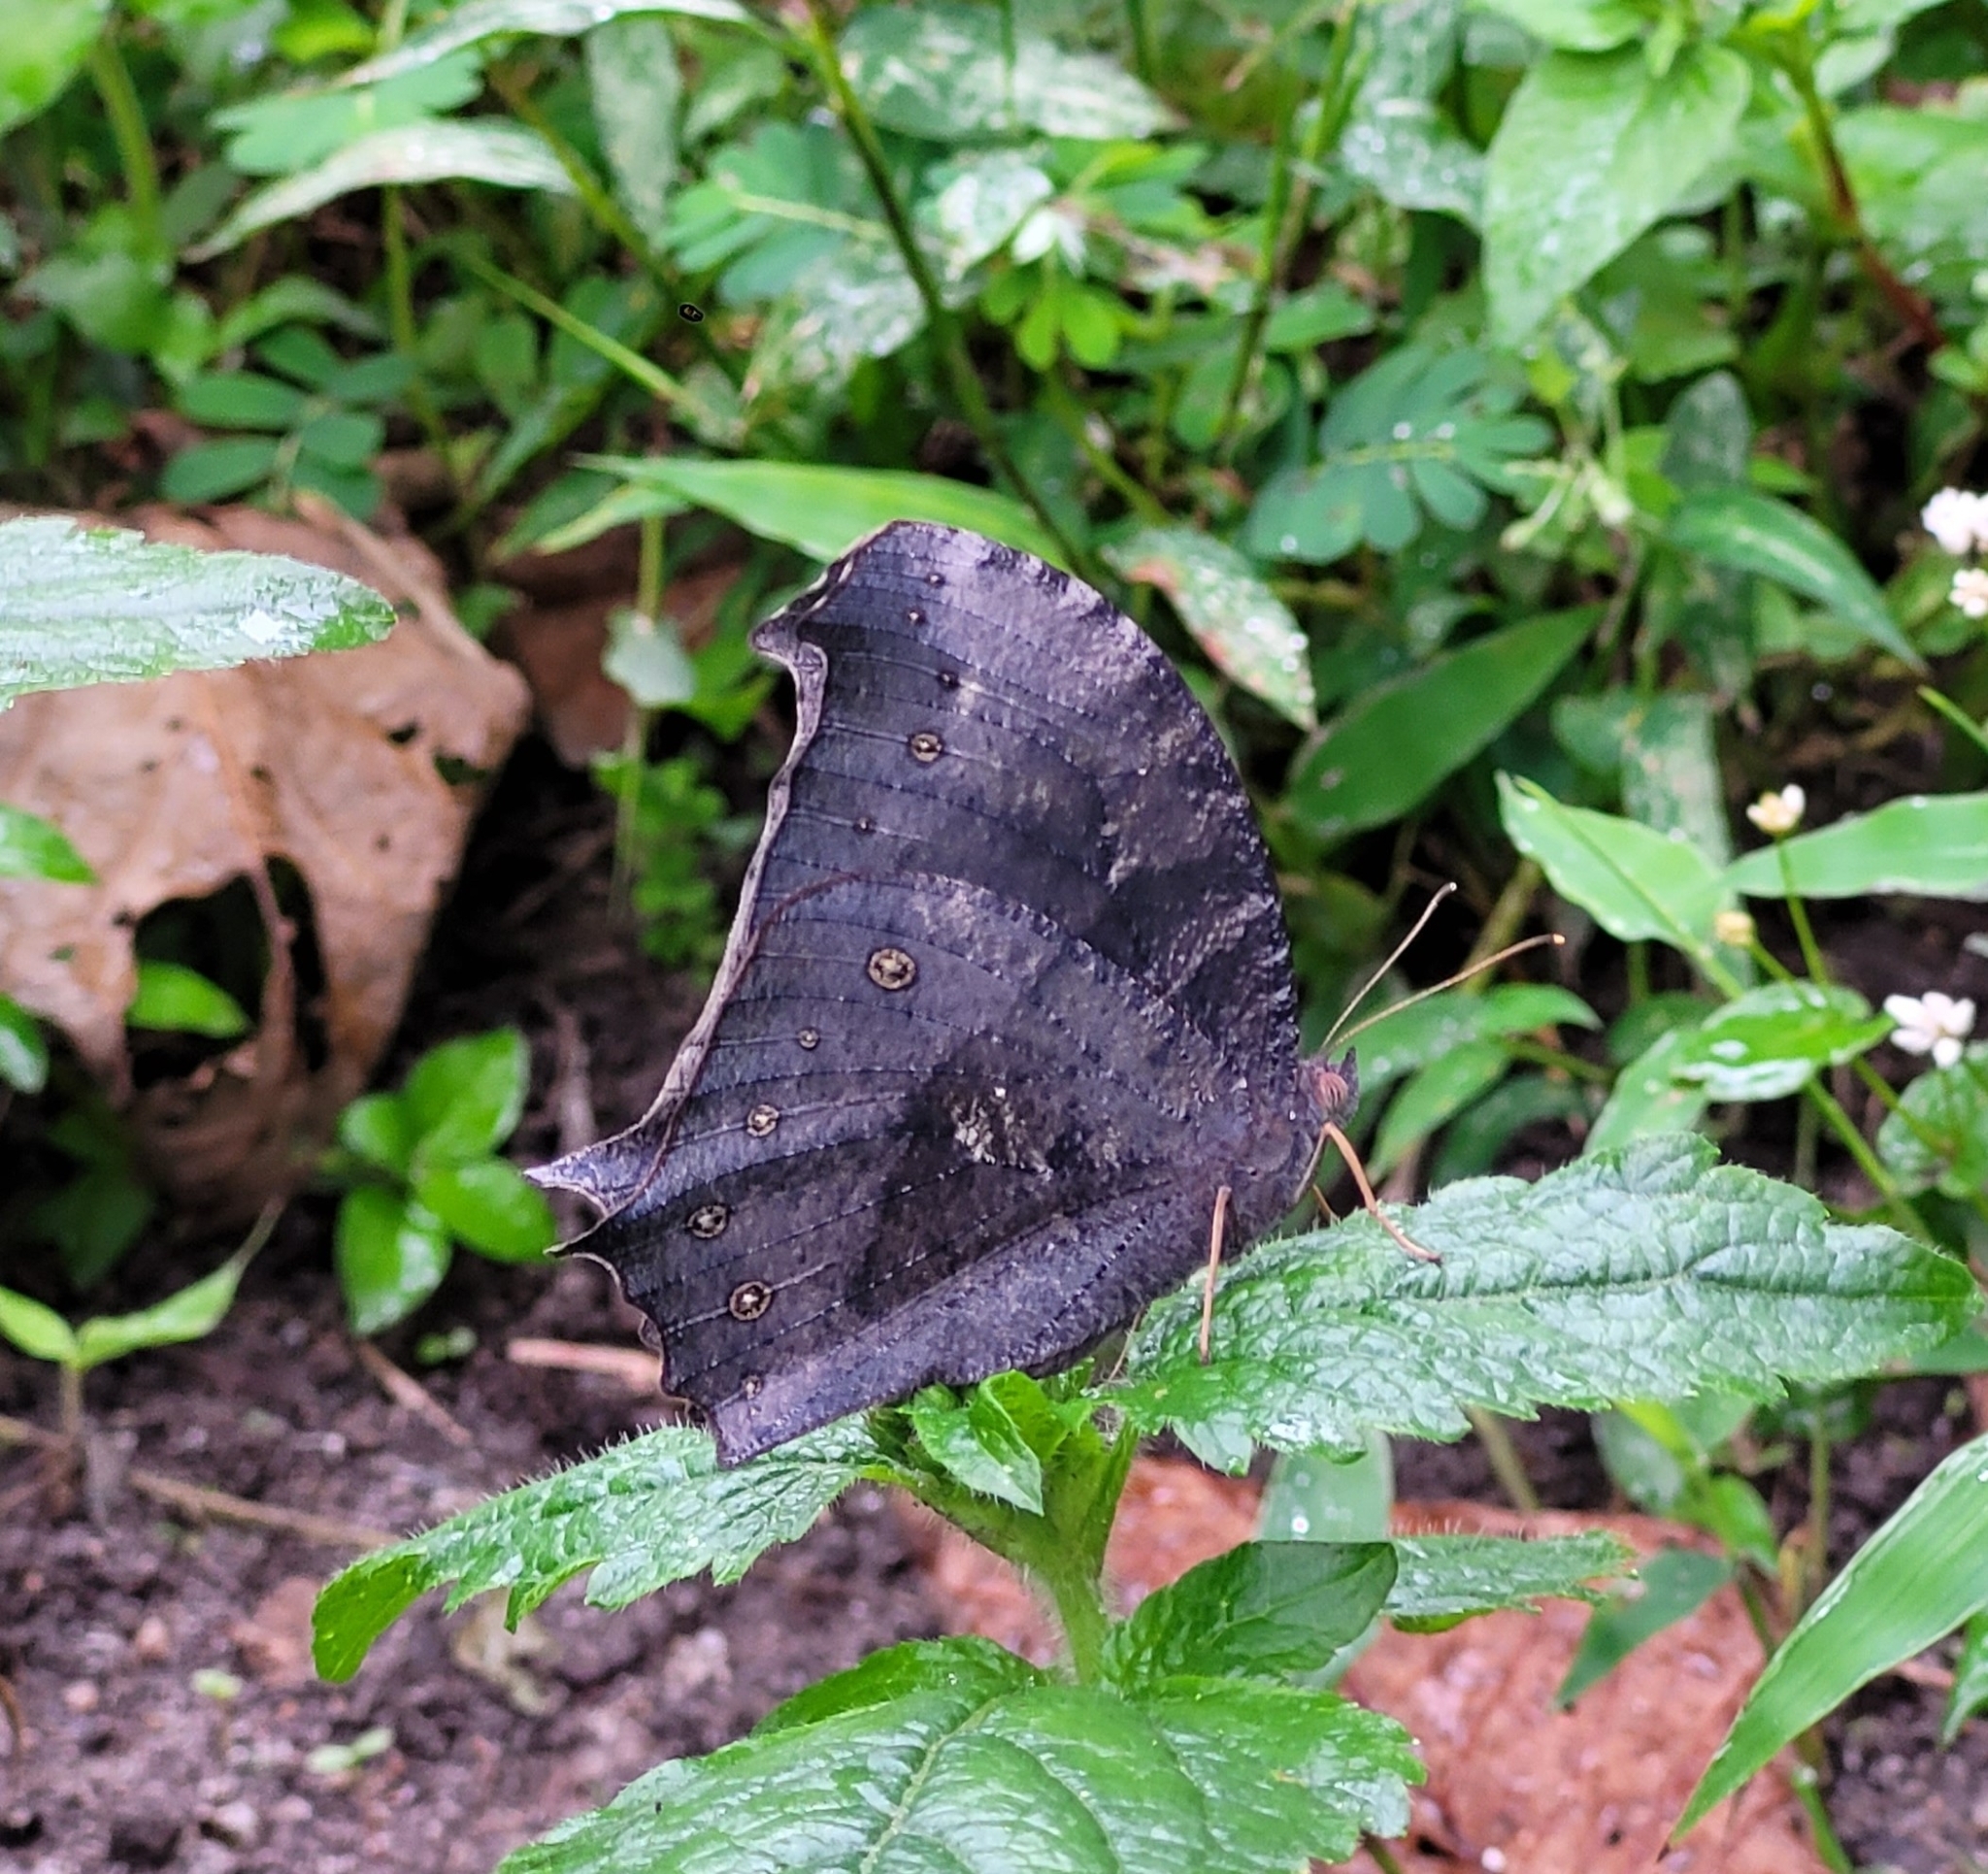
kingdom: Animalia
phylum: Arthropoda
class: Insecta
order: Lepidoptera
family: Nymphalidae
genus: Melanitis
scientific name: Melanitis phedima
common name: Dark evening brown
